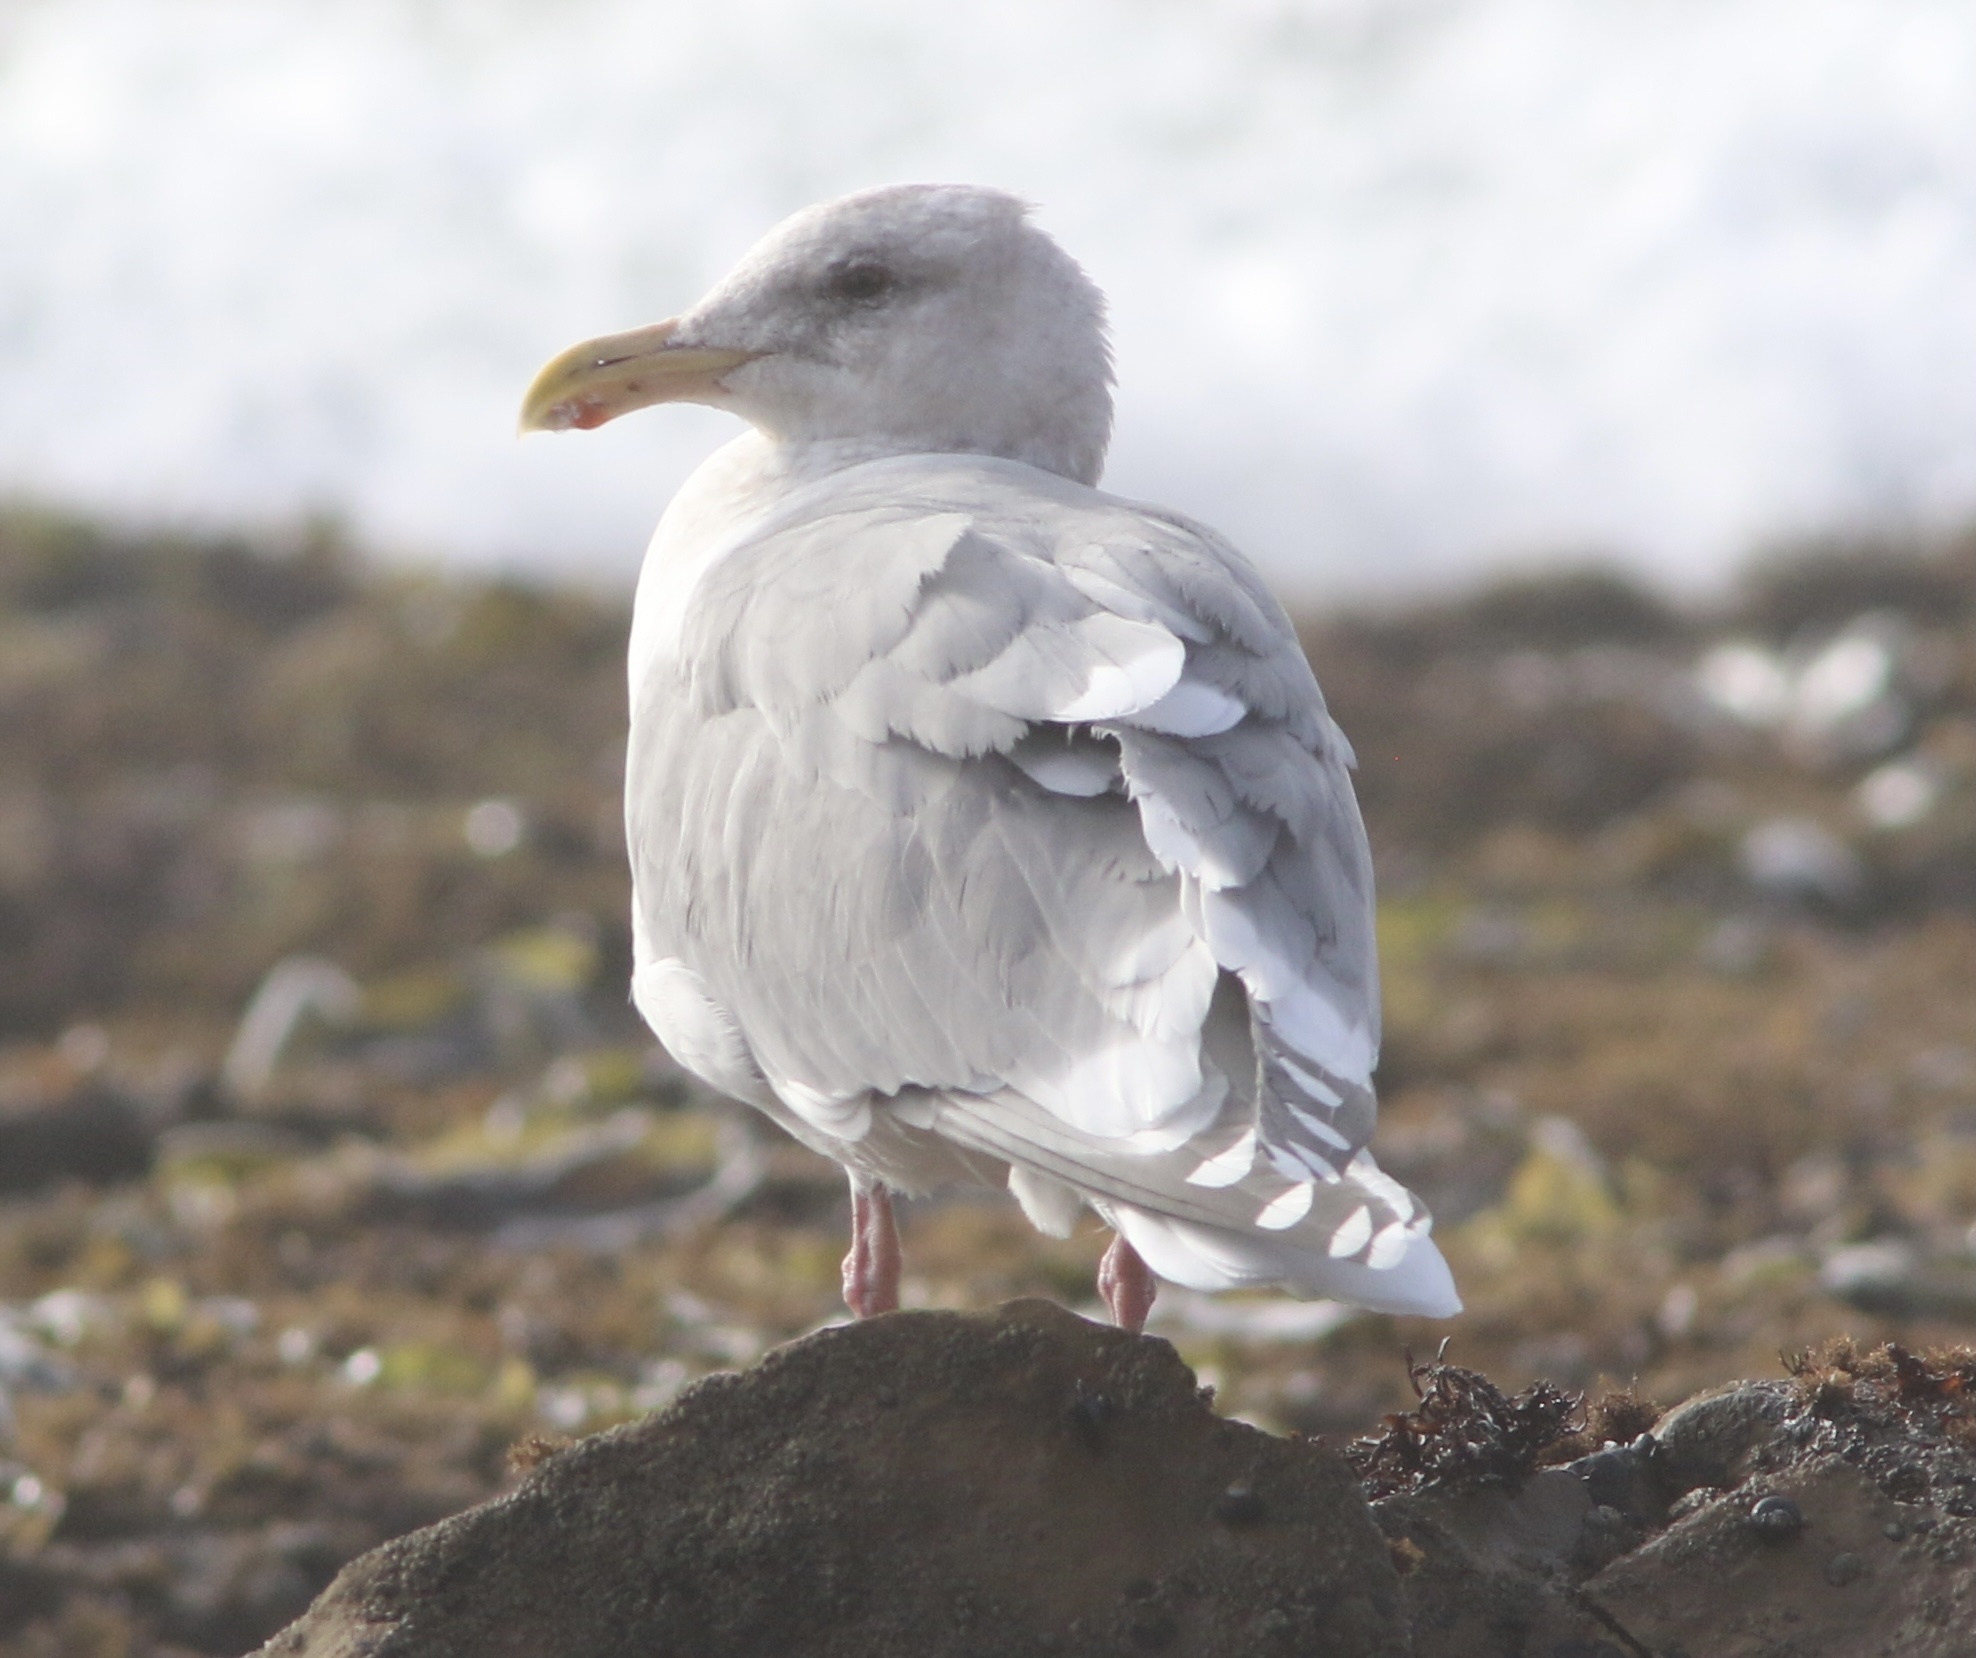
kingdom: Animalia
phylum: Chordata
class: Aves
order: Charadriiformes
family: Laridae
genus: Larus
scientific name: Larus glaucescens
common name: Glaucous-winged gull
